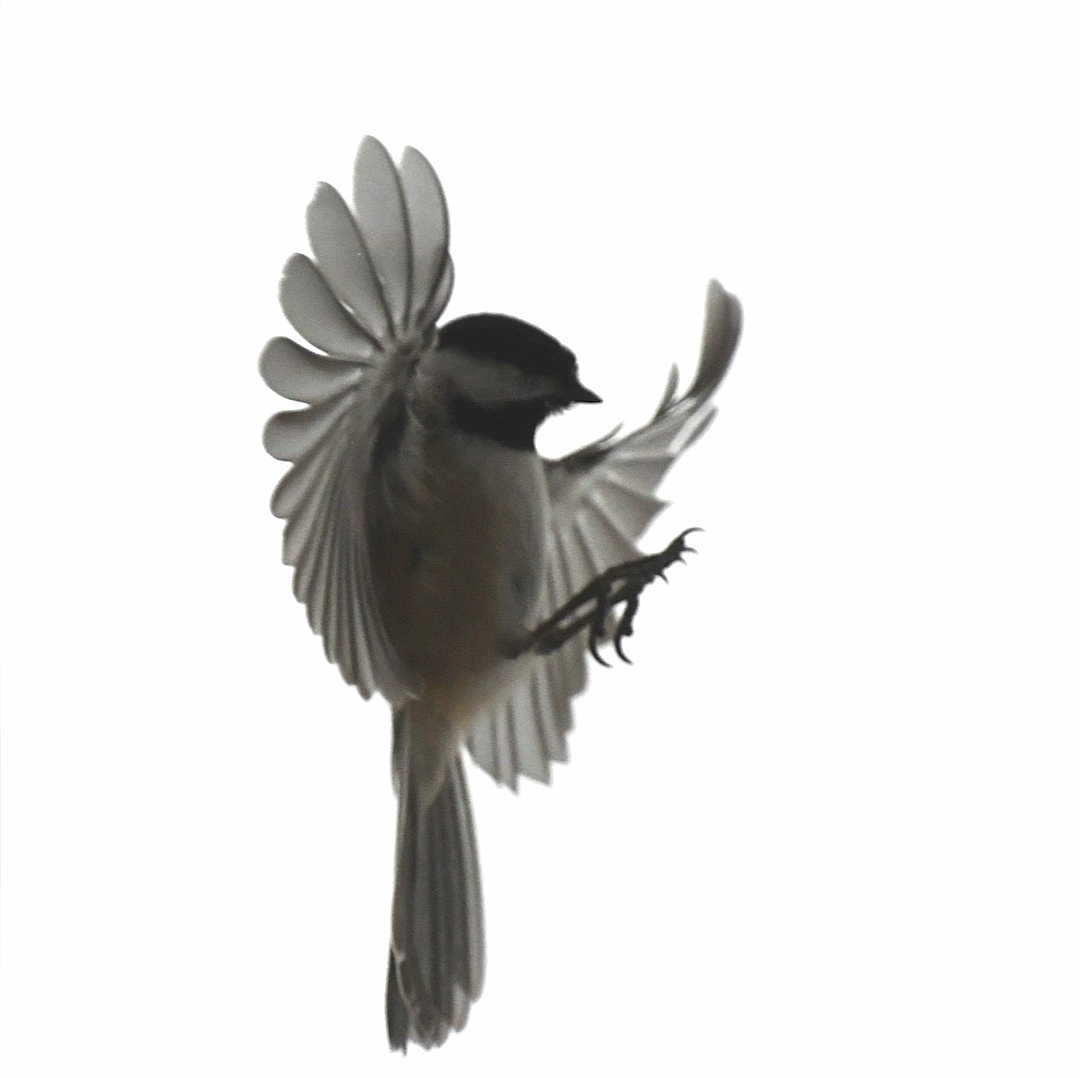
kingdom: Animalia
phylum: Chordata
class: Aves
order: Passeriformes
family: Paridae
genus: Poecile
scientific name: Poecile atricapillus
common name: Black-capped chickadee
